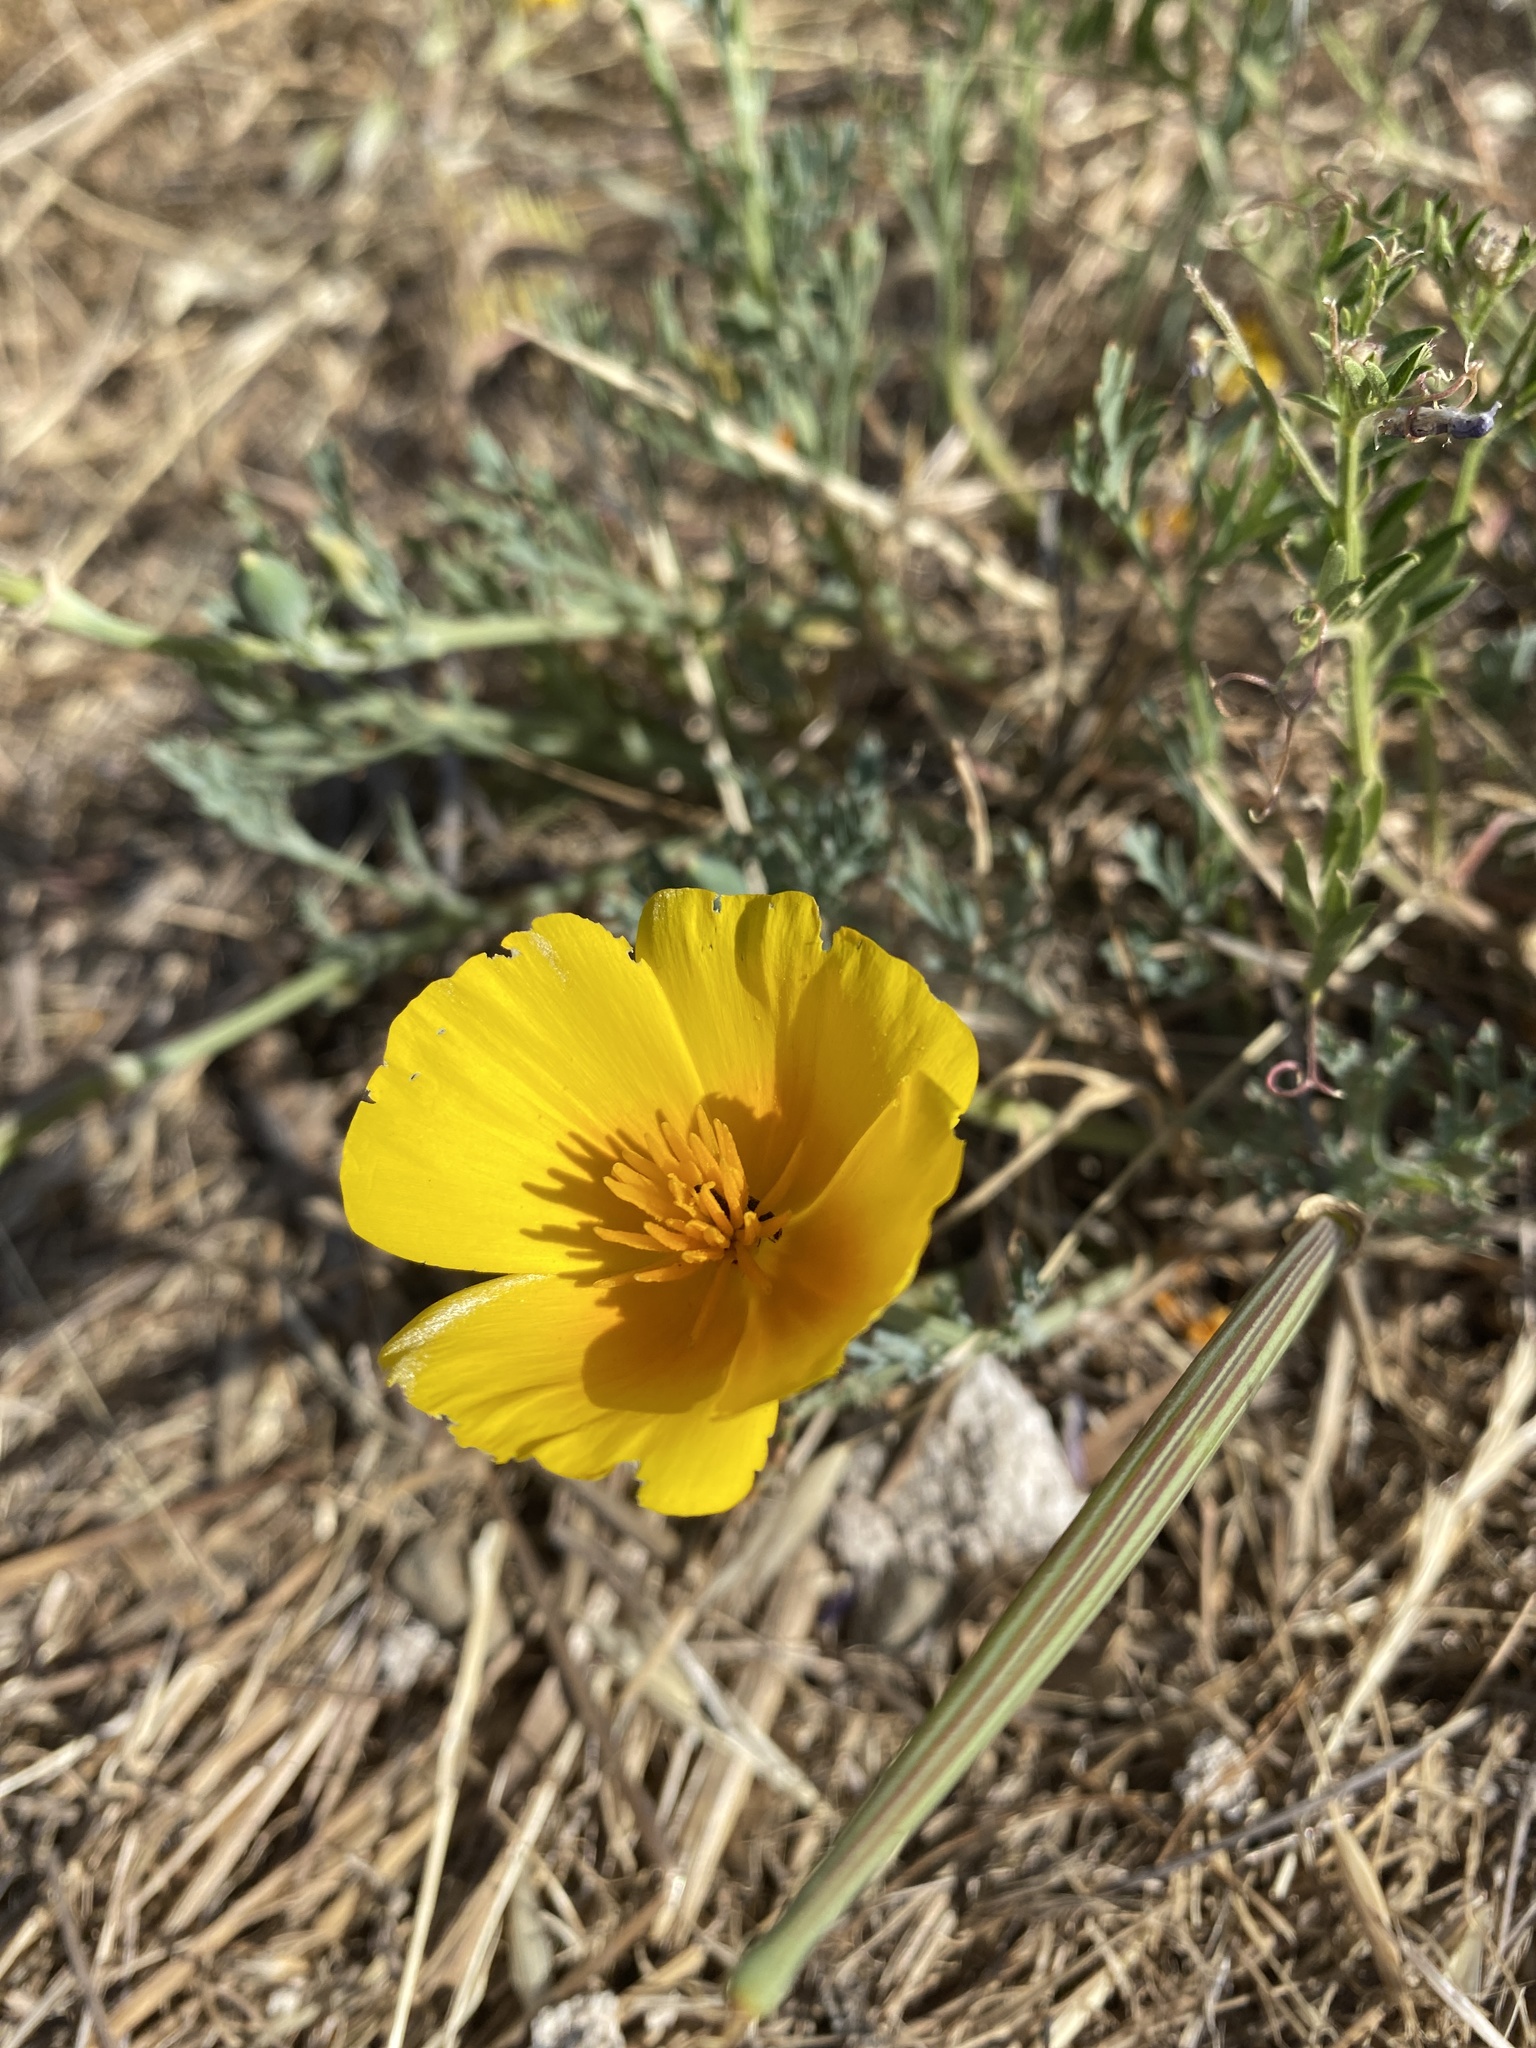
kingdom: Plantae
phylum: Tracheophyta
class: Magnoliopsida
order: Ranunculales
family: Papaveraceae
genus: Eschscholzia
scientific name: Eschscholzia californica
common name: California poppy
